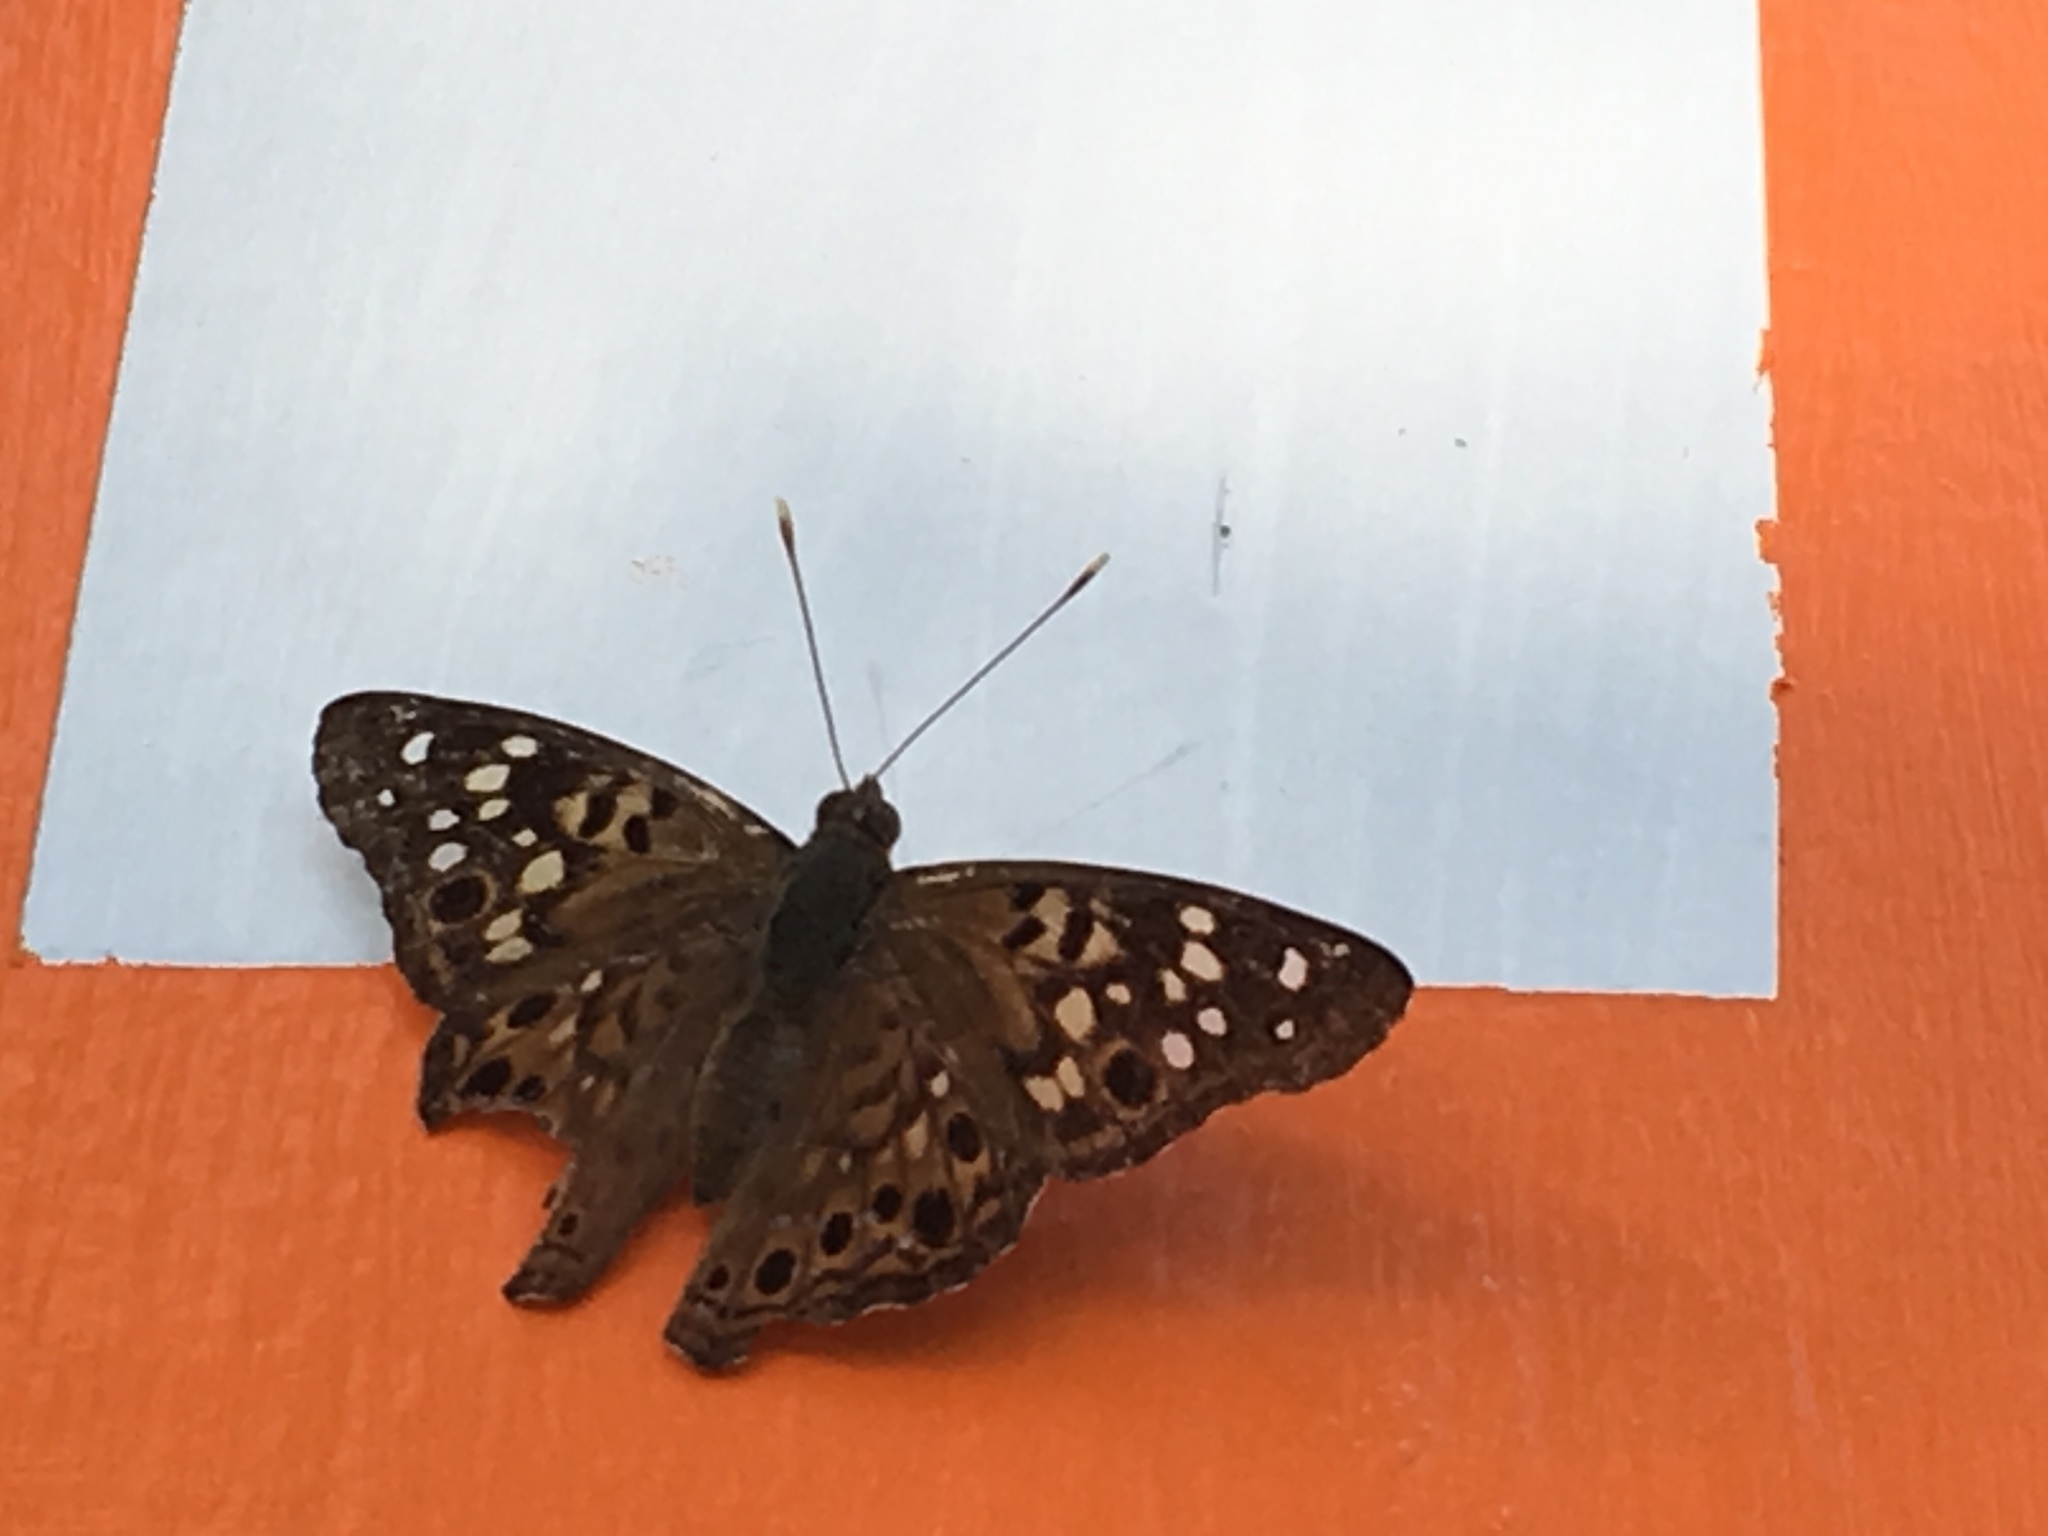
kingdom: Animalia
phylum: Arthropoda
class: Insecta
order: Lepidoptera
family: Nymphalidae
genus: Asterocampa
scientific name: Asterocampa celtis
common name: Hackberry emperor
